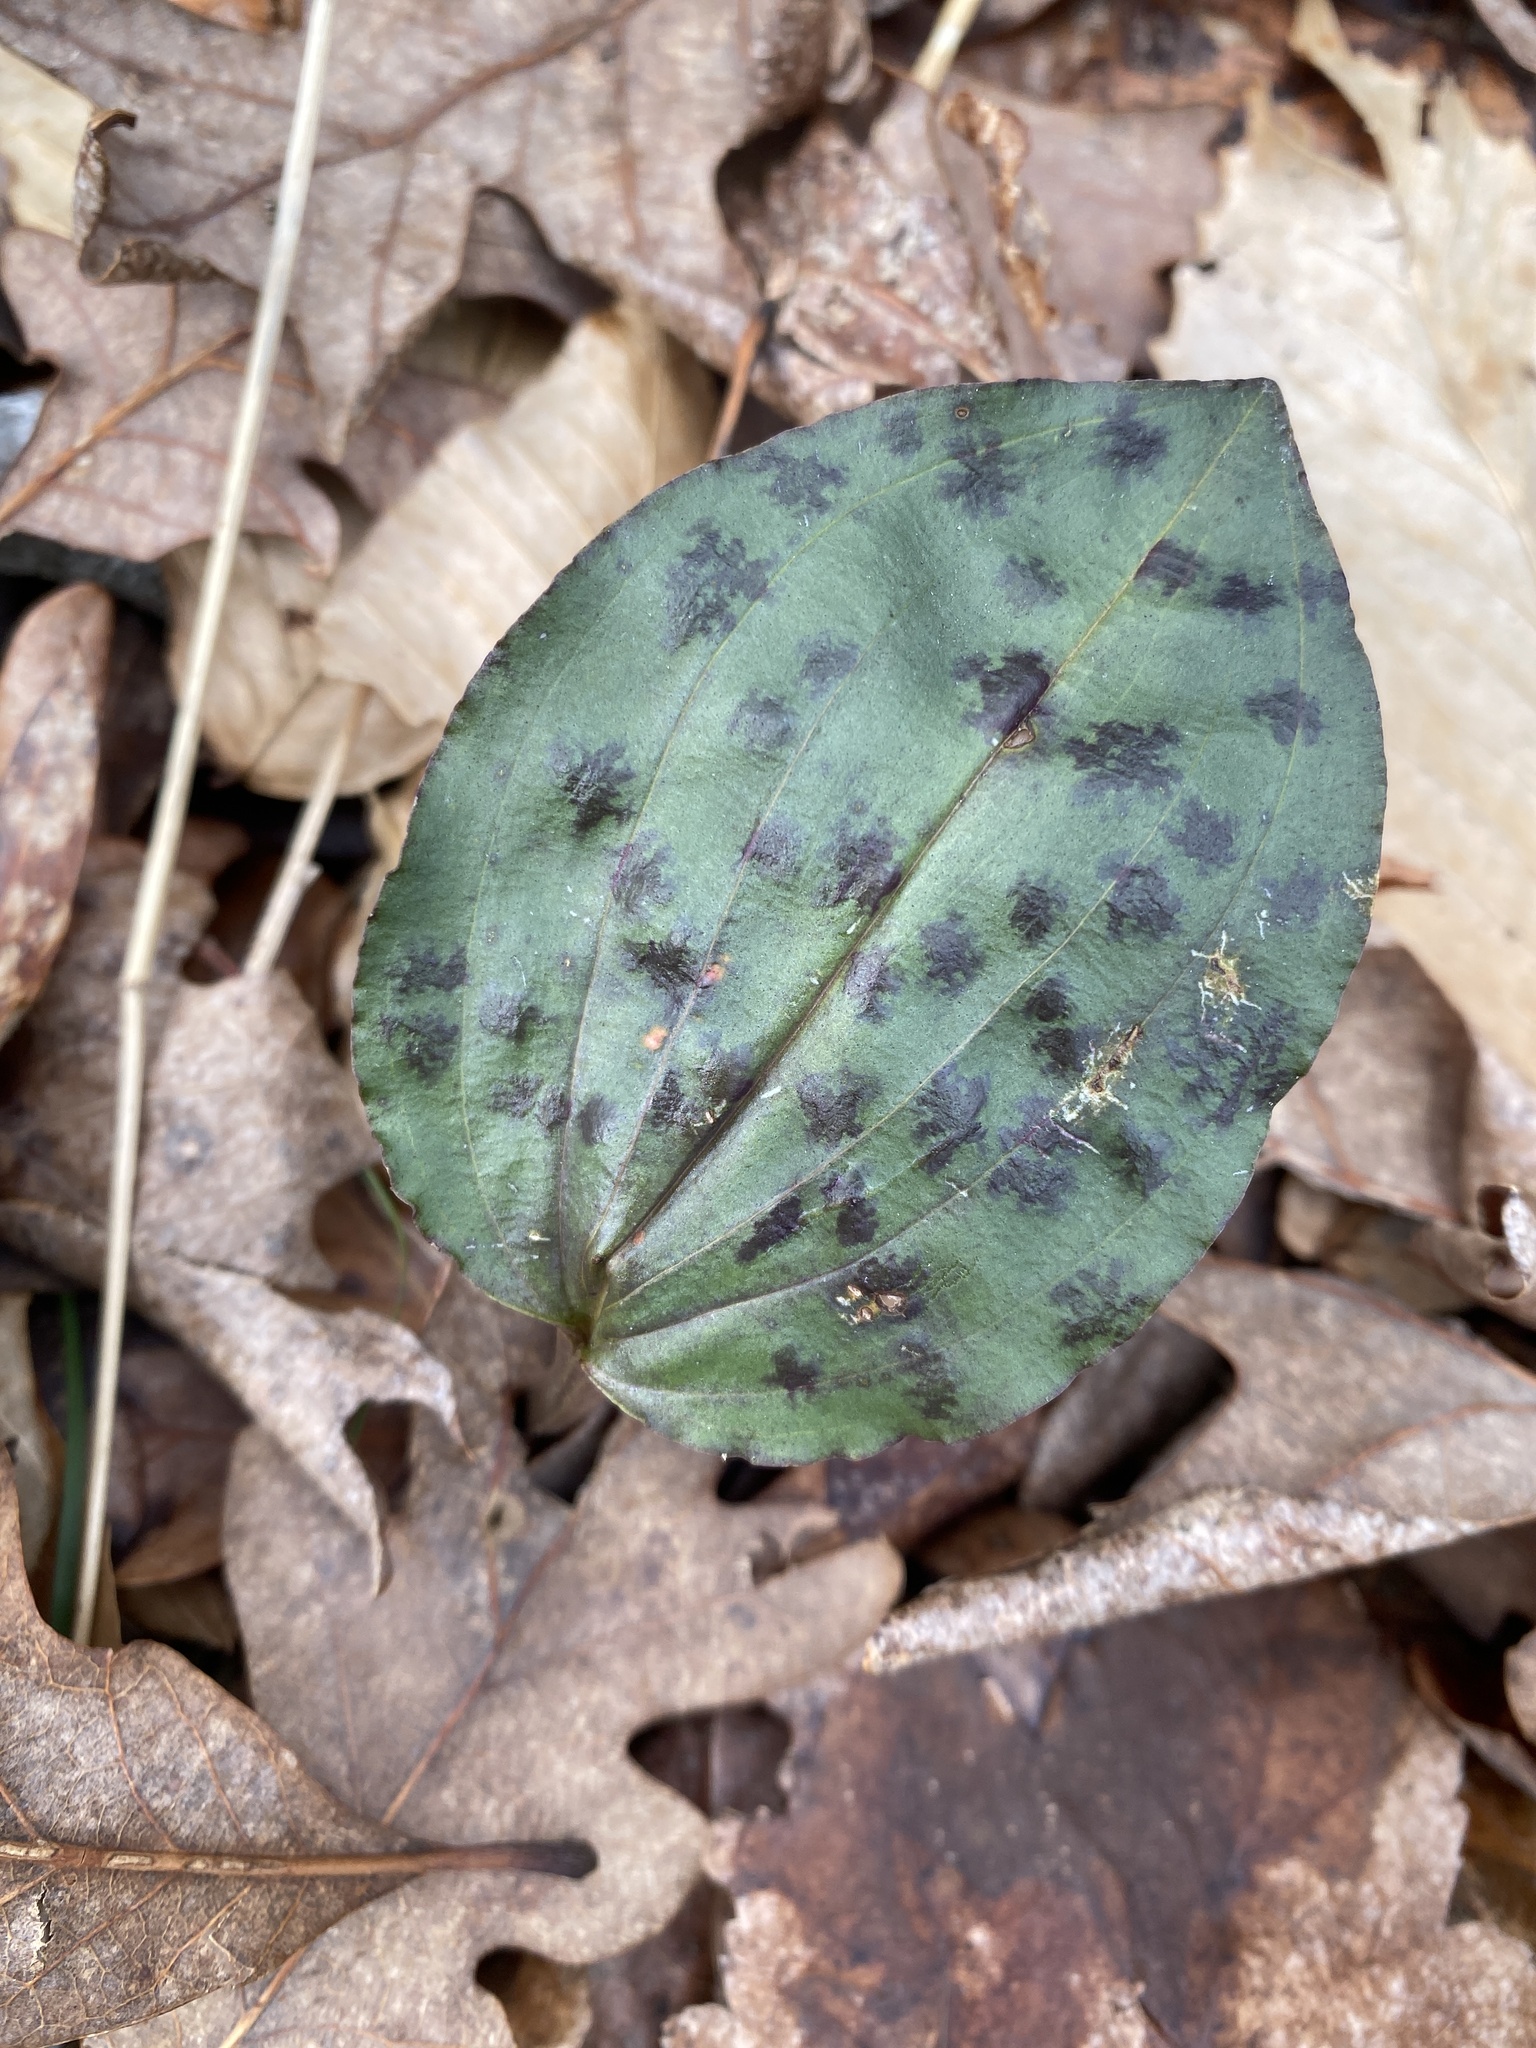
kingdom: Plantae
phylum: Tracheophyta
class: Liliopsida
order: Asparagales
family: Orchidaceae
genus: Tipularia
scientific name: Tipularia discolor
